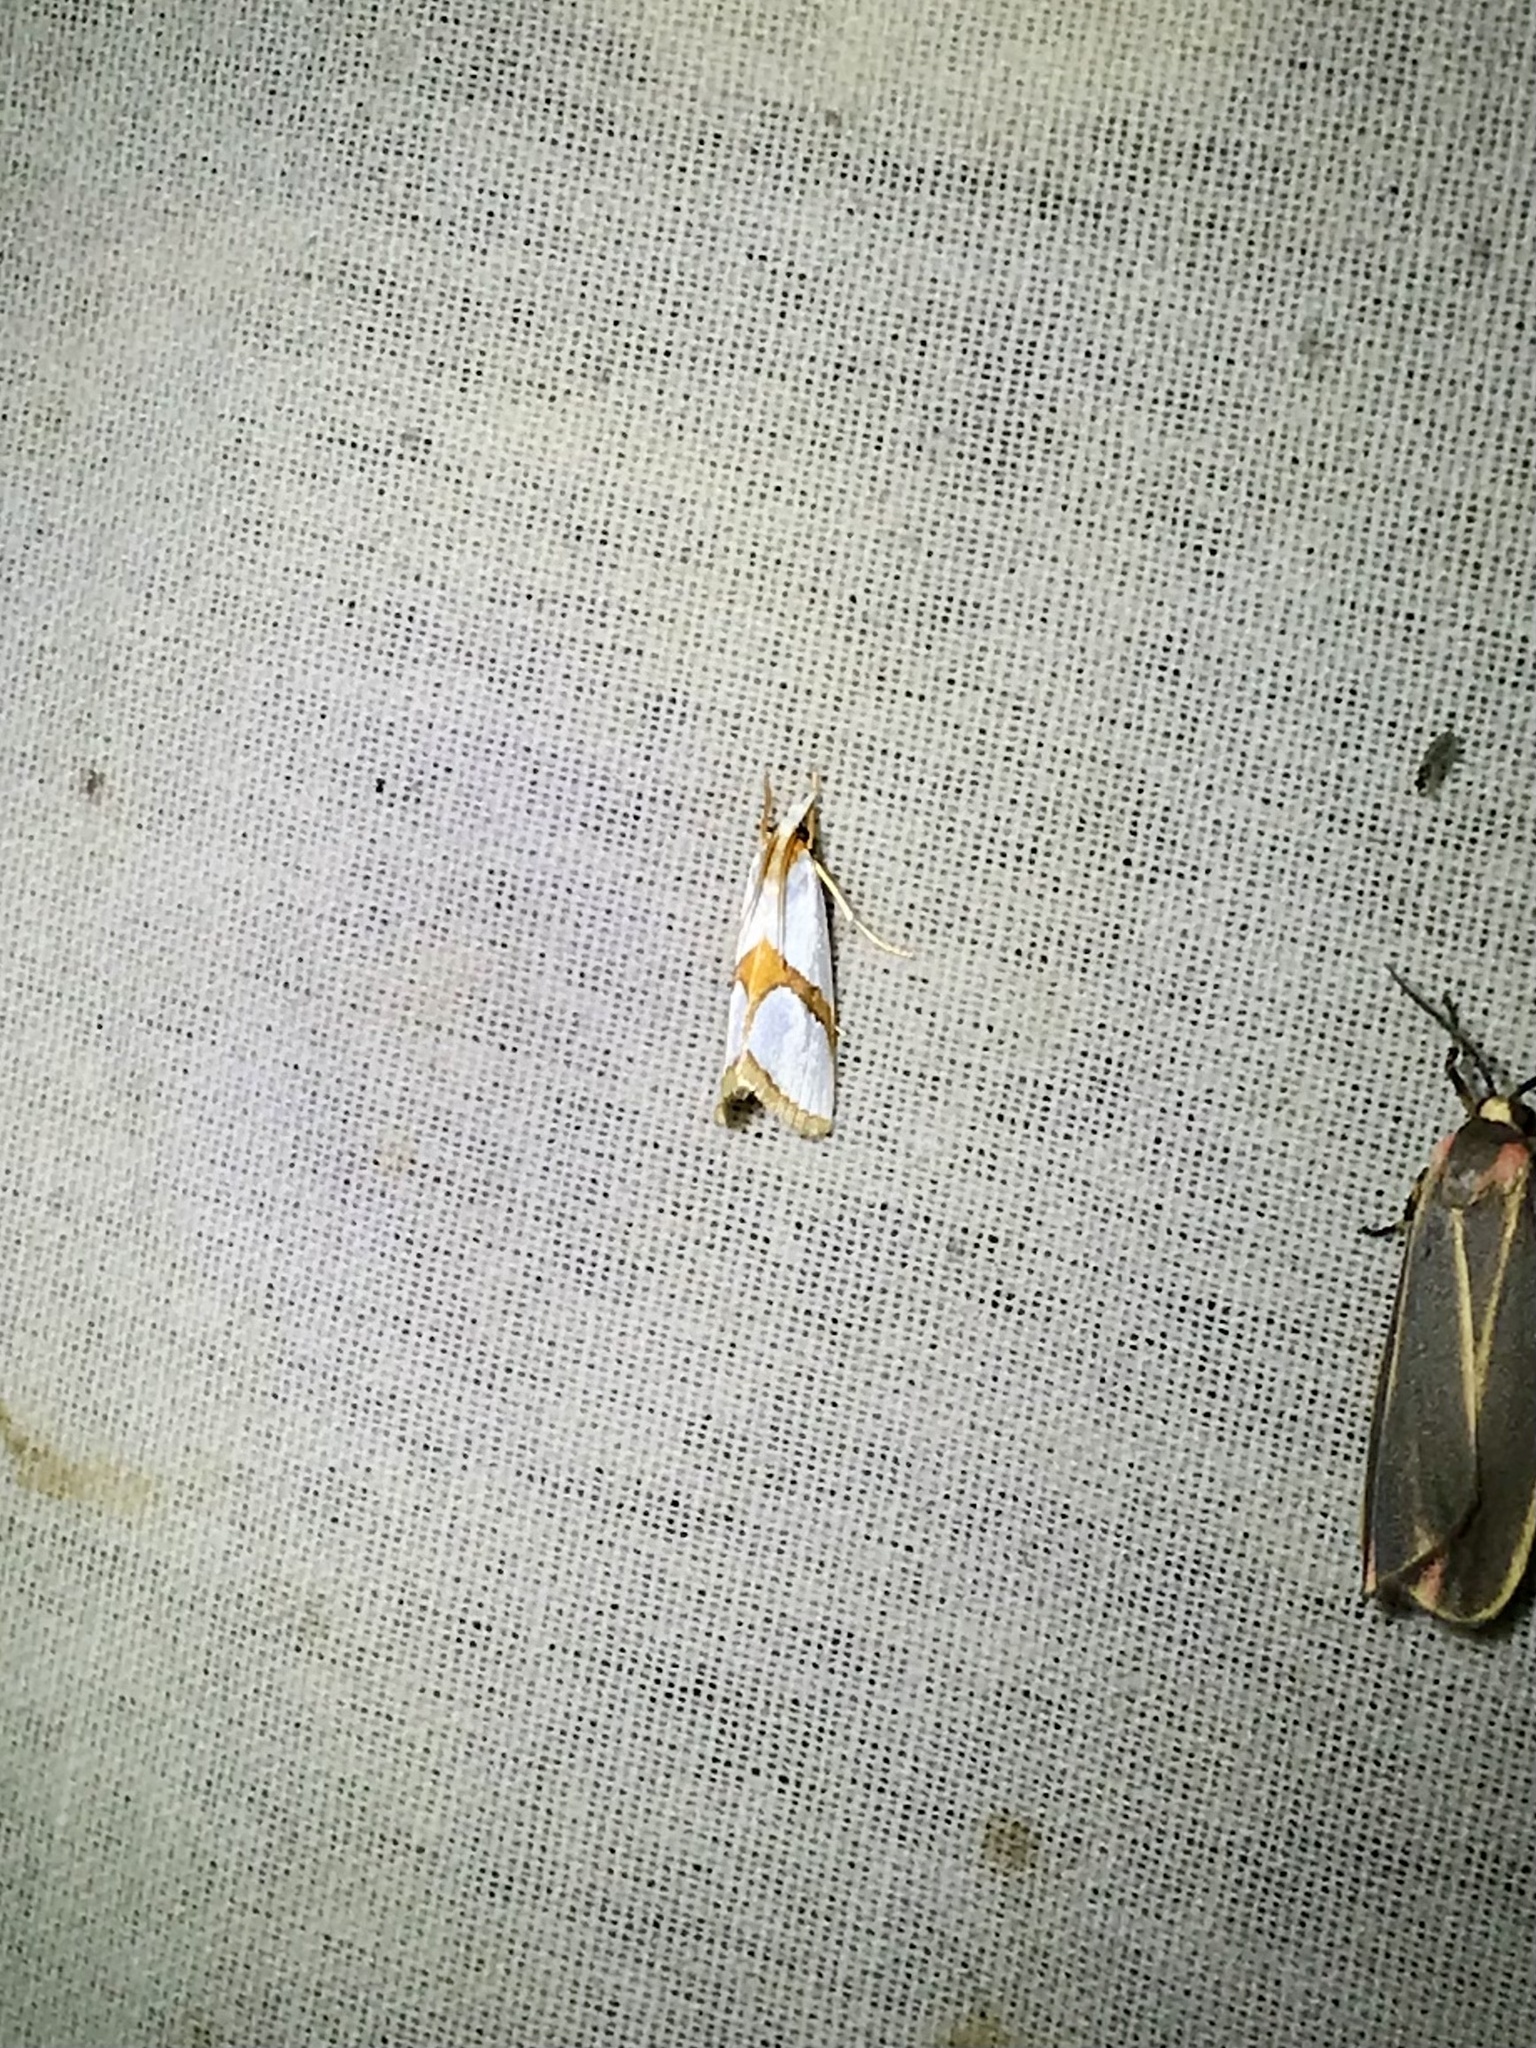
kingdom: Animalia
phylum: Arthropoda
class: Insecta
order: Lepidoptera
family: Crambidae
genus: Argyria
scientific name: Argyria auratella
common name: Curve-lined argyria moth
